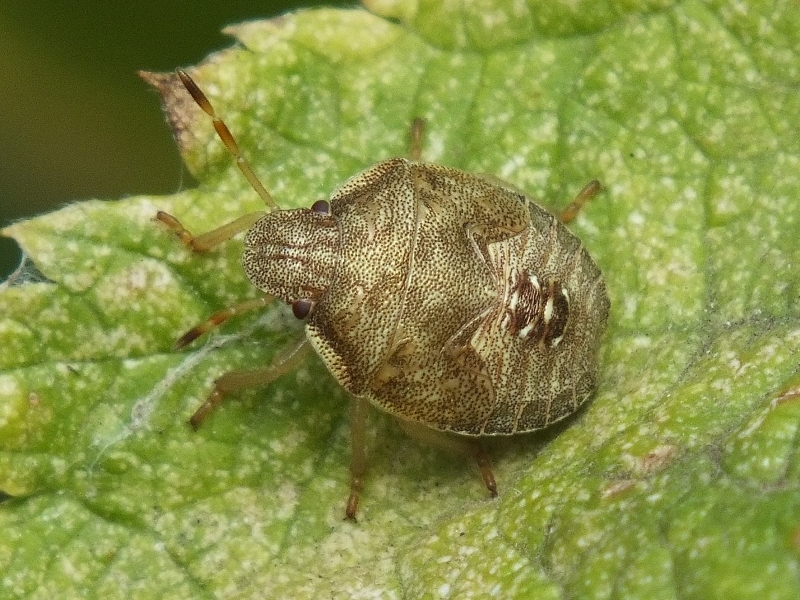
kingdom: Animalia
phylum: Arthropoda
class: Insecta
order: Hemiptera
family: Pentatomidae
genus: Holcostethus
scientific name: Holcostethus strictus
